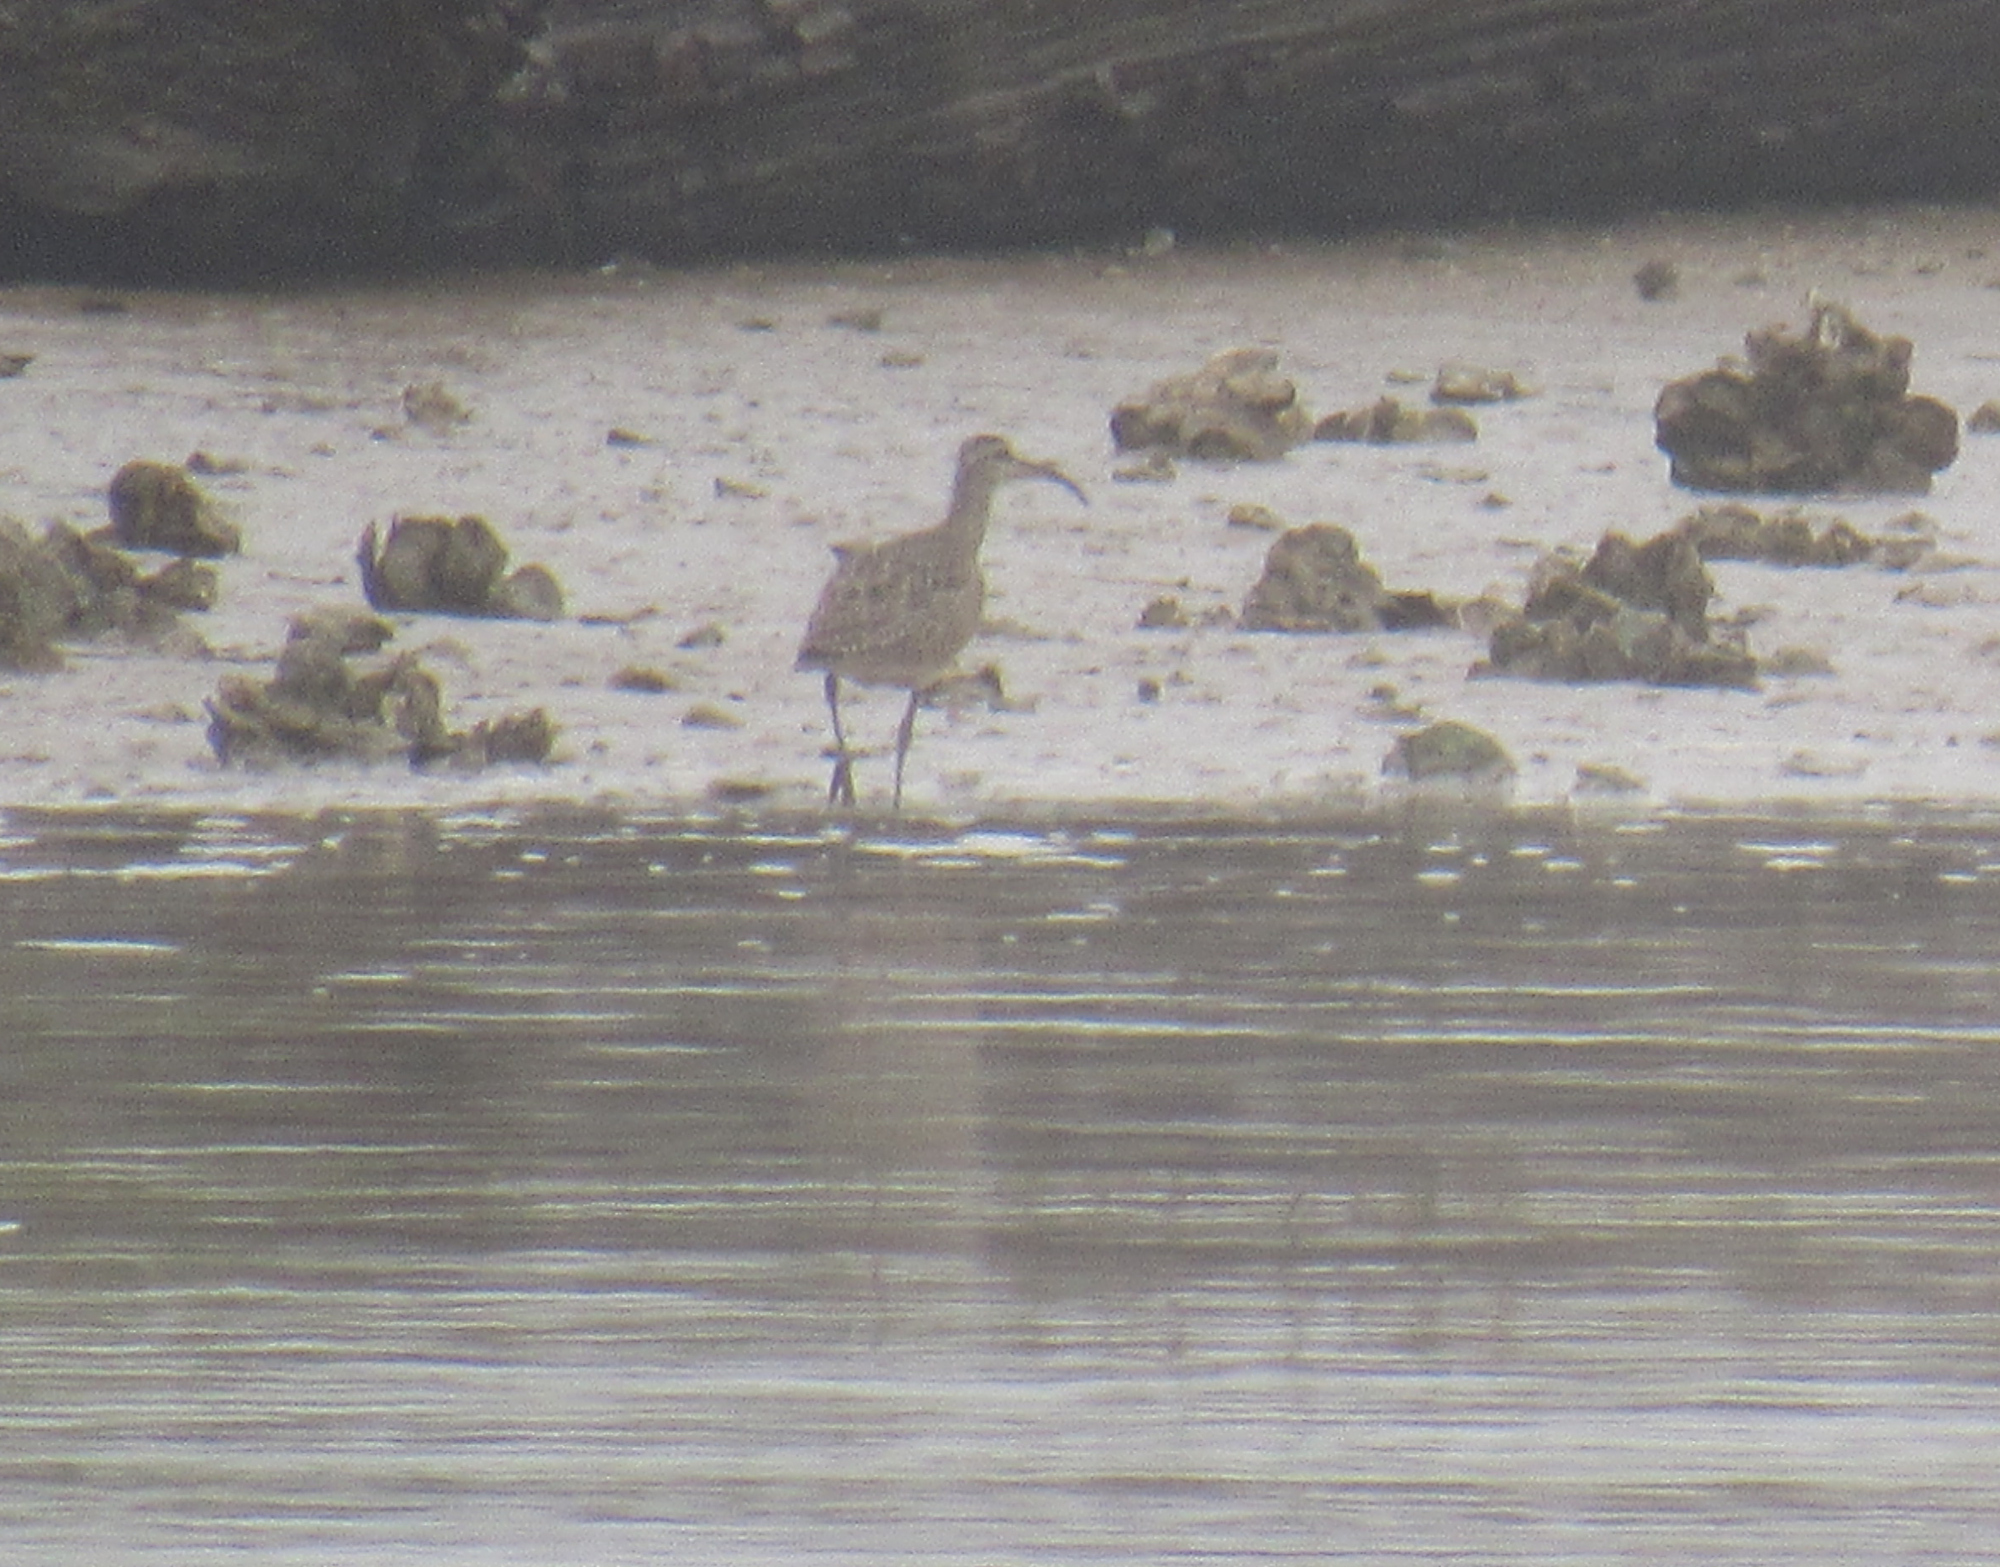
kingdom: Animalia
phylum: Chordata
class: Aves
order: Charadriiformes
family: Scolopacidae
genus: Numenius
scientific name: Numenius phaeopus
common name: Whimbrel
